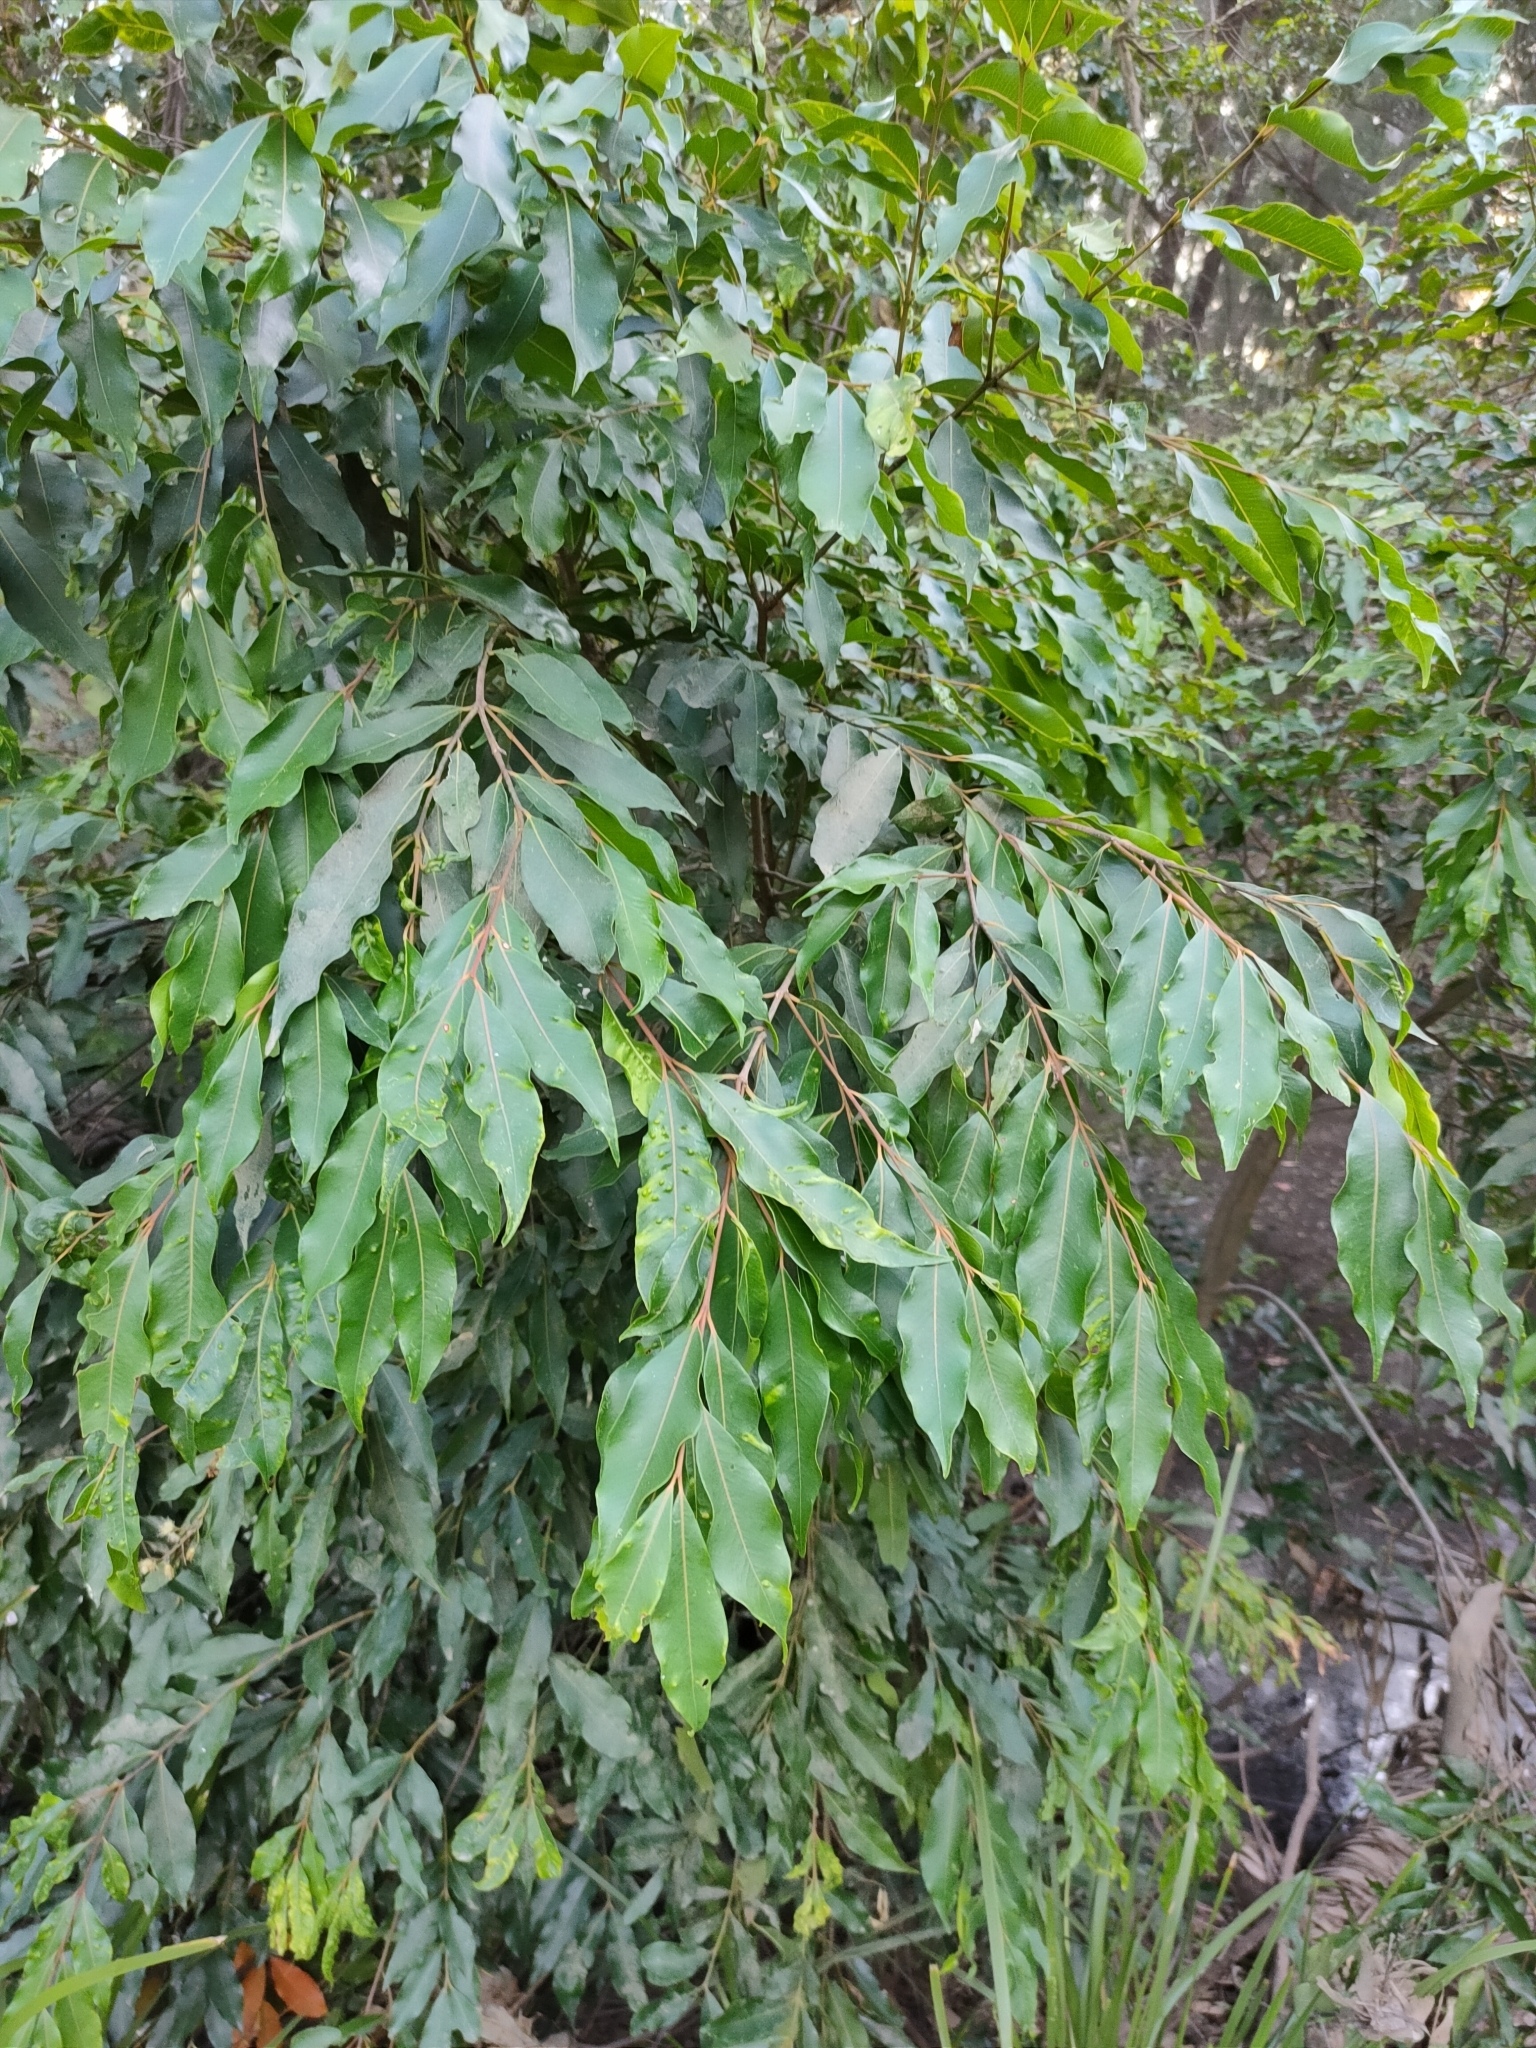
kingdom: Plantae
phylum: Tracheophyta
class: Magnoliopsida
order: Myrtales
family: Myrtaceae
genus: Syzygium
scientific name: Syzygium floribundum
